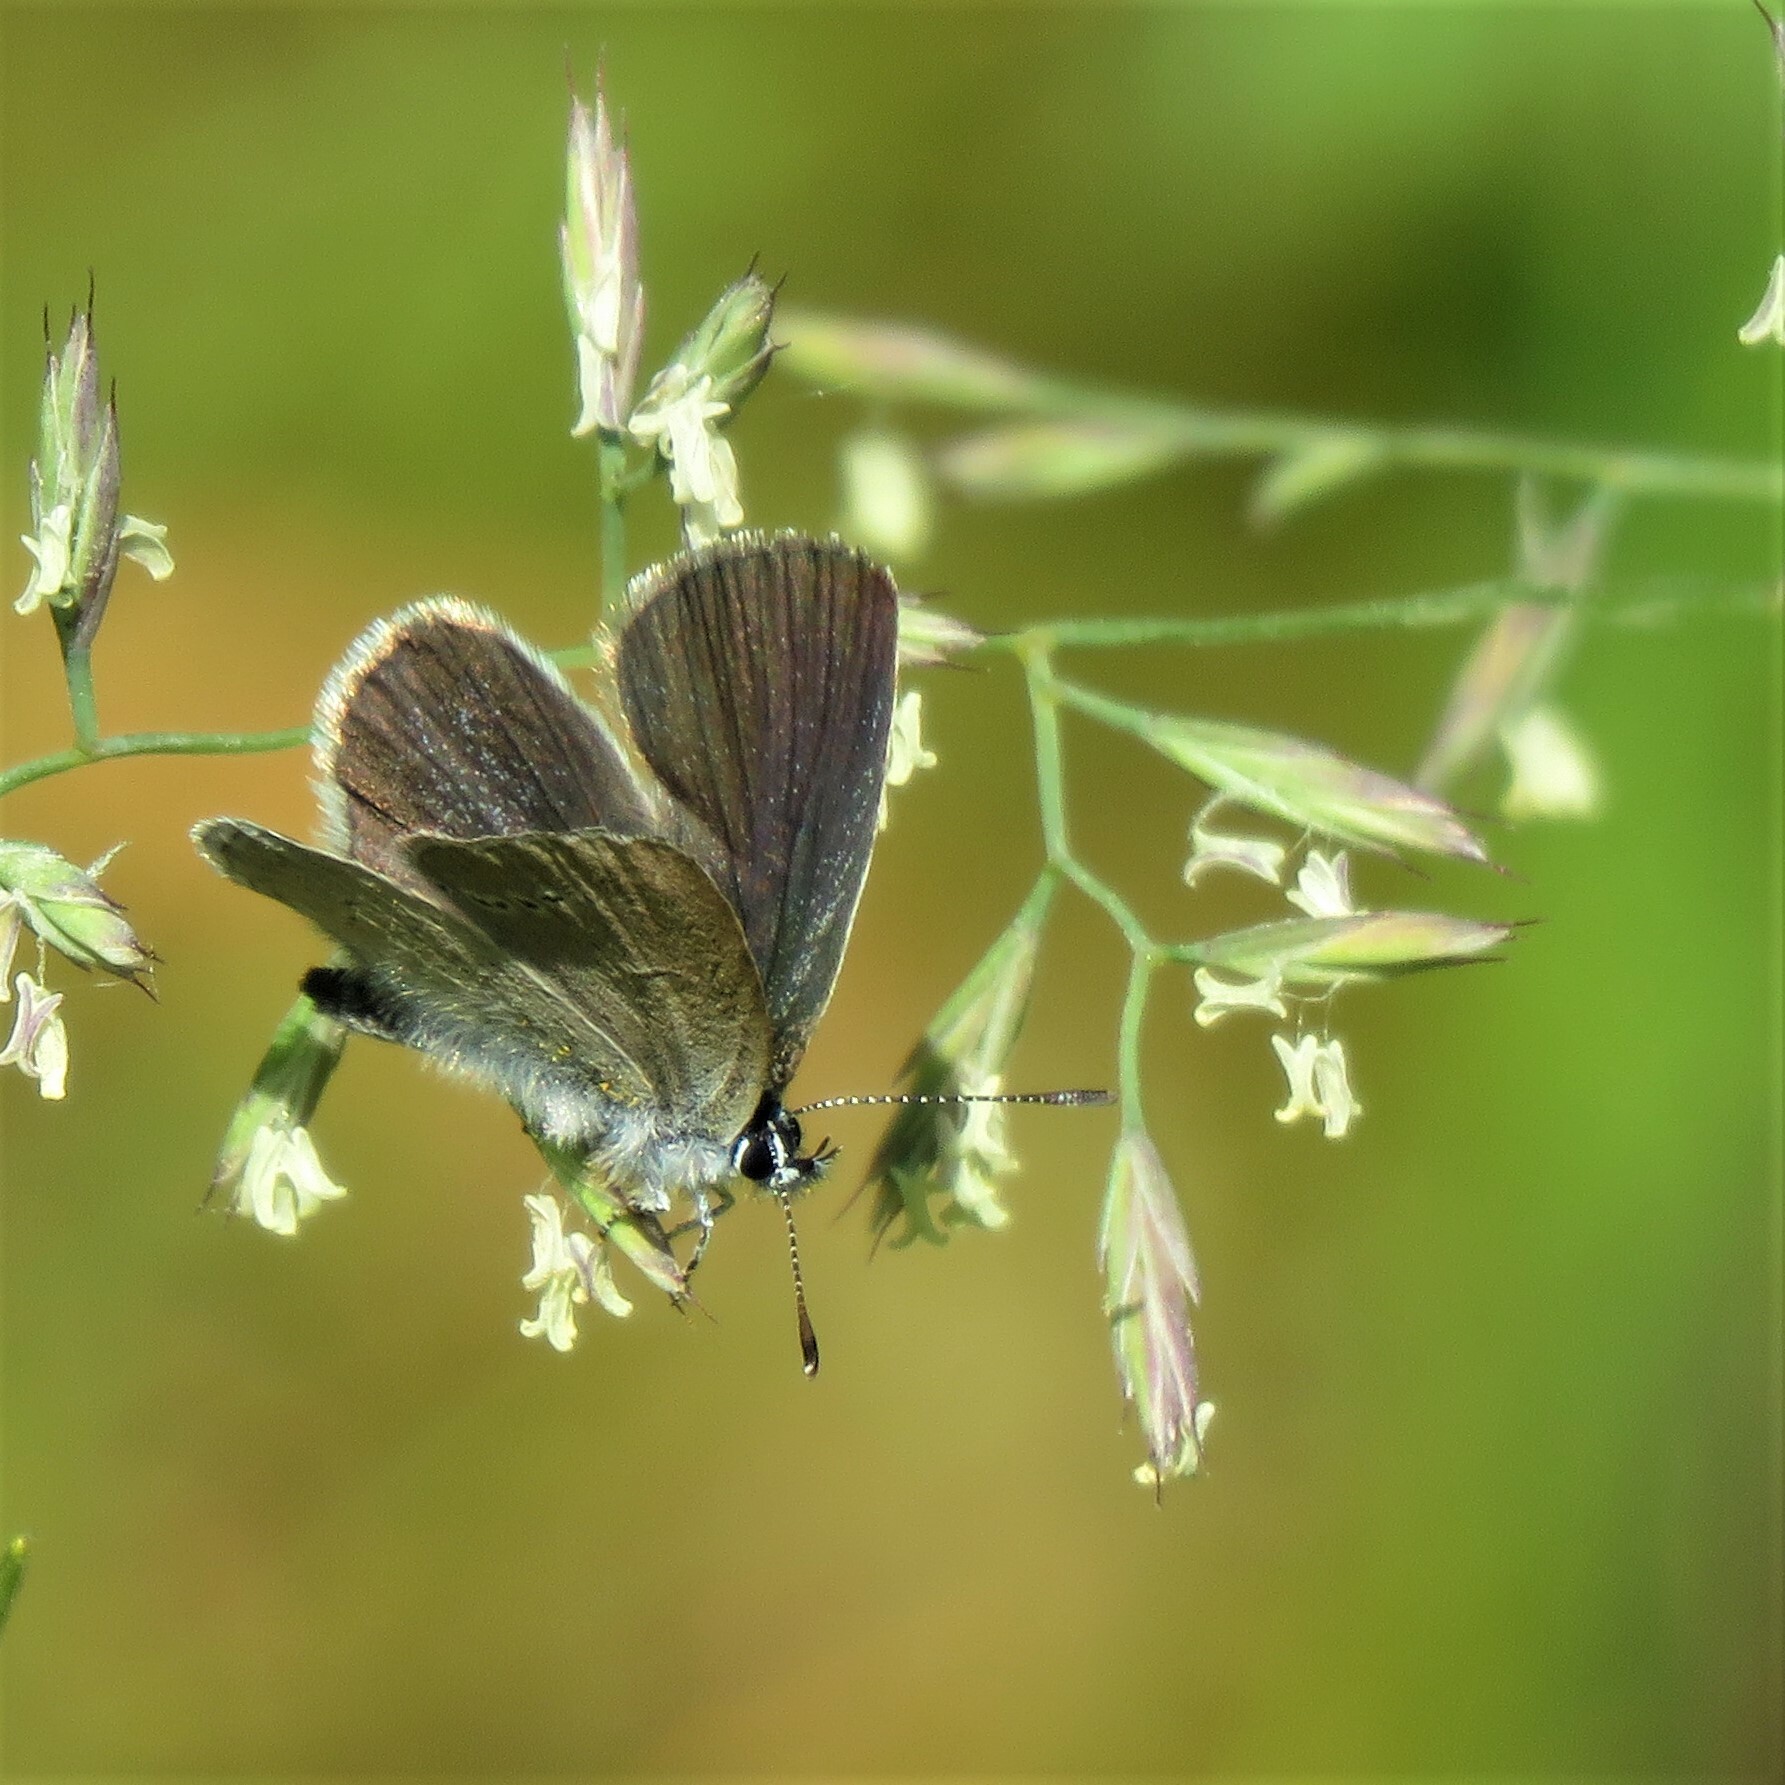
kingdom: Animalia
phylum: Arthropoda
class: Insecta
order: Lepidoptera
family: Lycaenidae
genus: Cupido
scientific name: Cupido minimus
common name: Small blue
